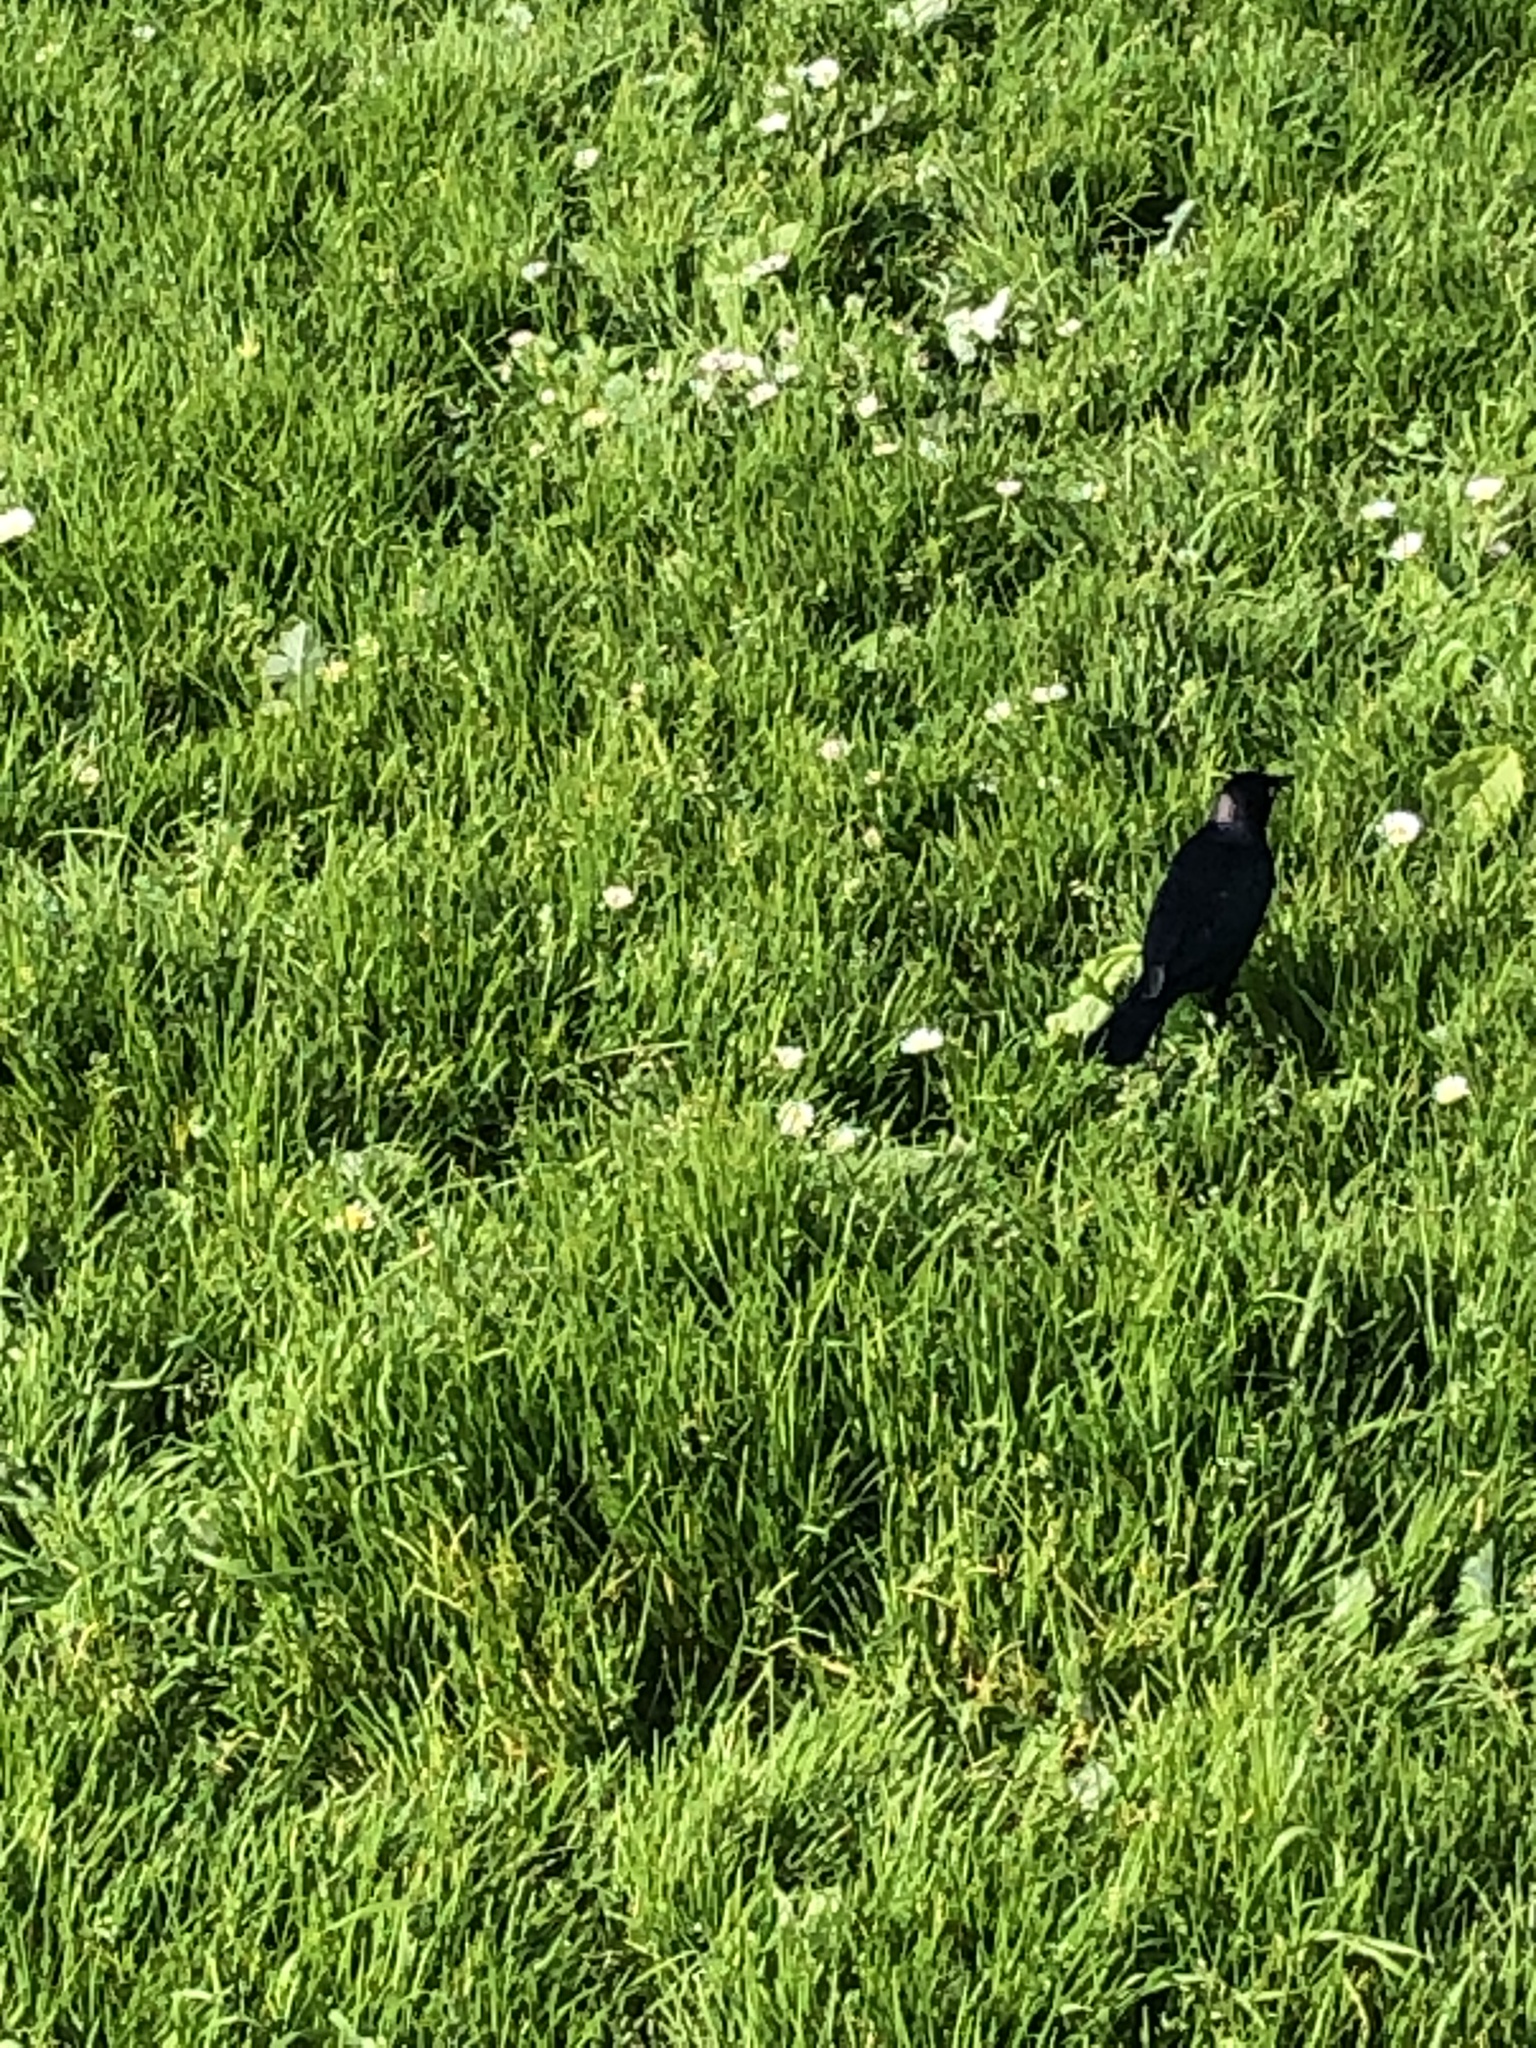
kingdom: Animalia
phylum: Chordata
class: Aves
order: Passeriformes
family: Icteridae
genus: Euphagus
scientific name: Euphagus cyanocephalus
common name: Brewer's blackbird
